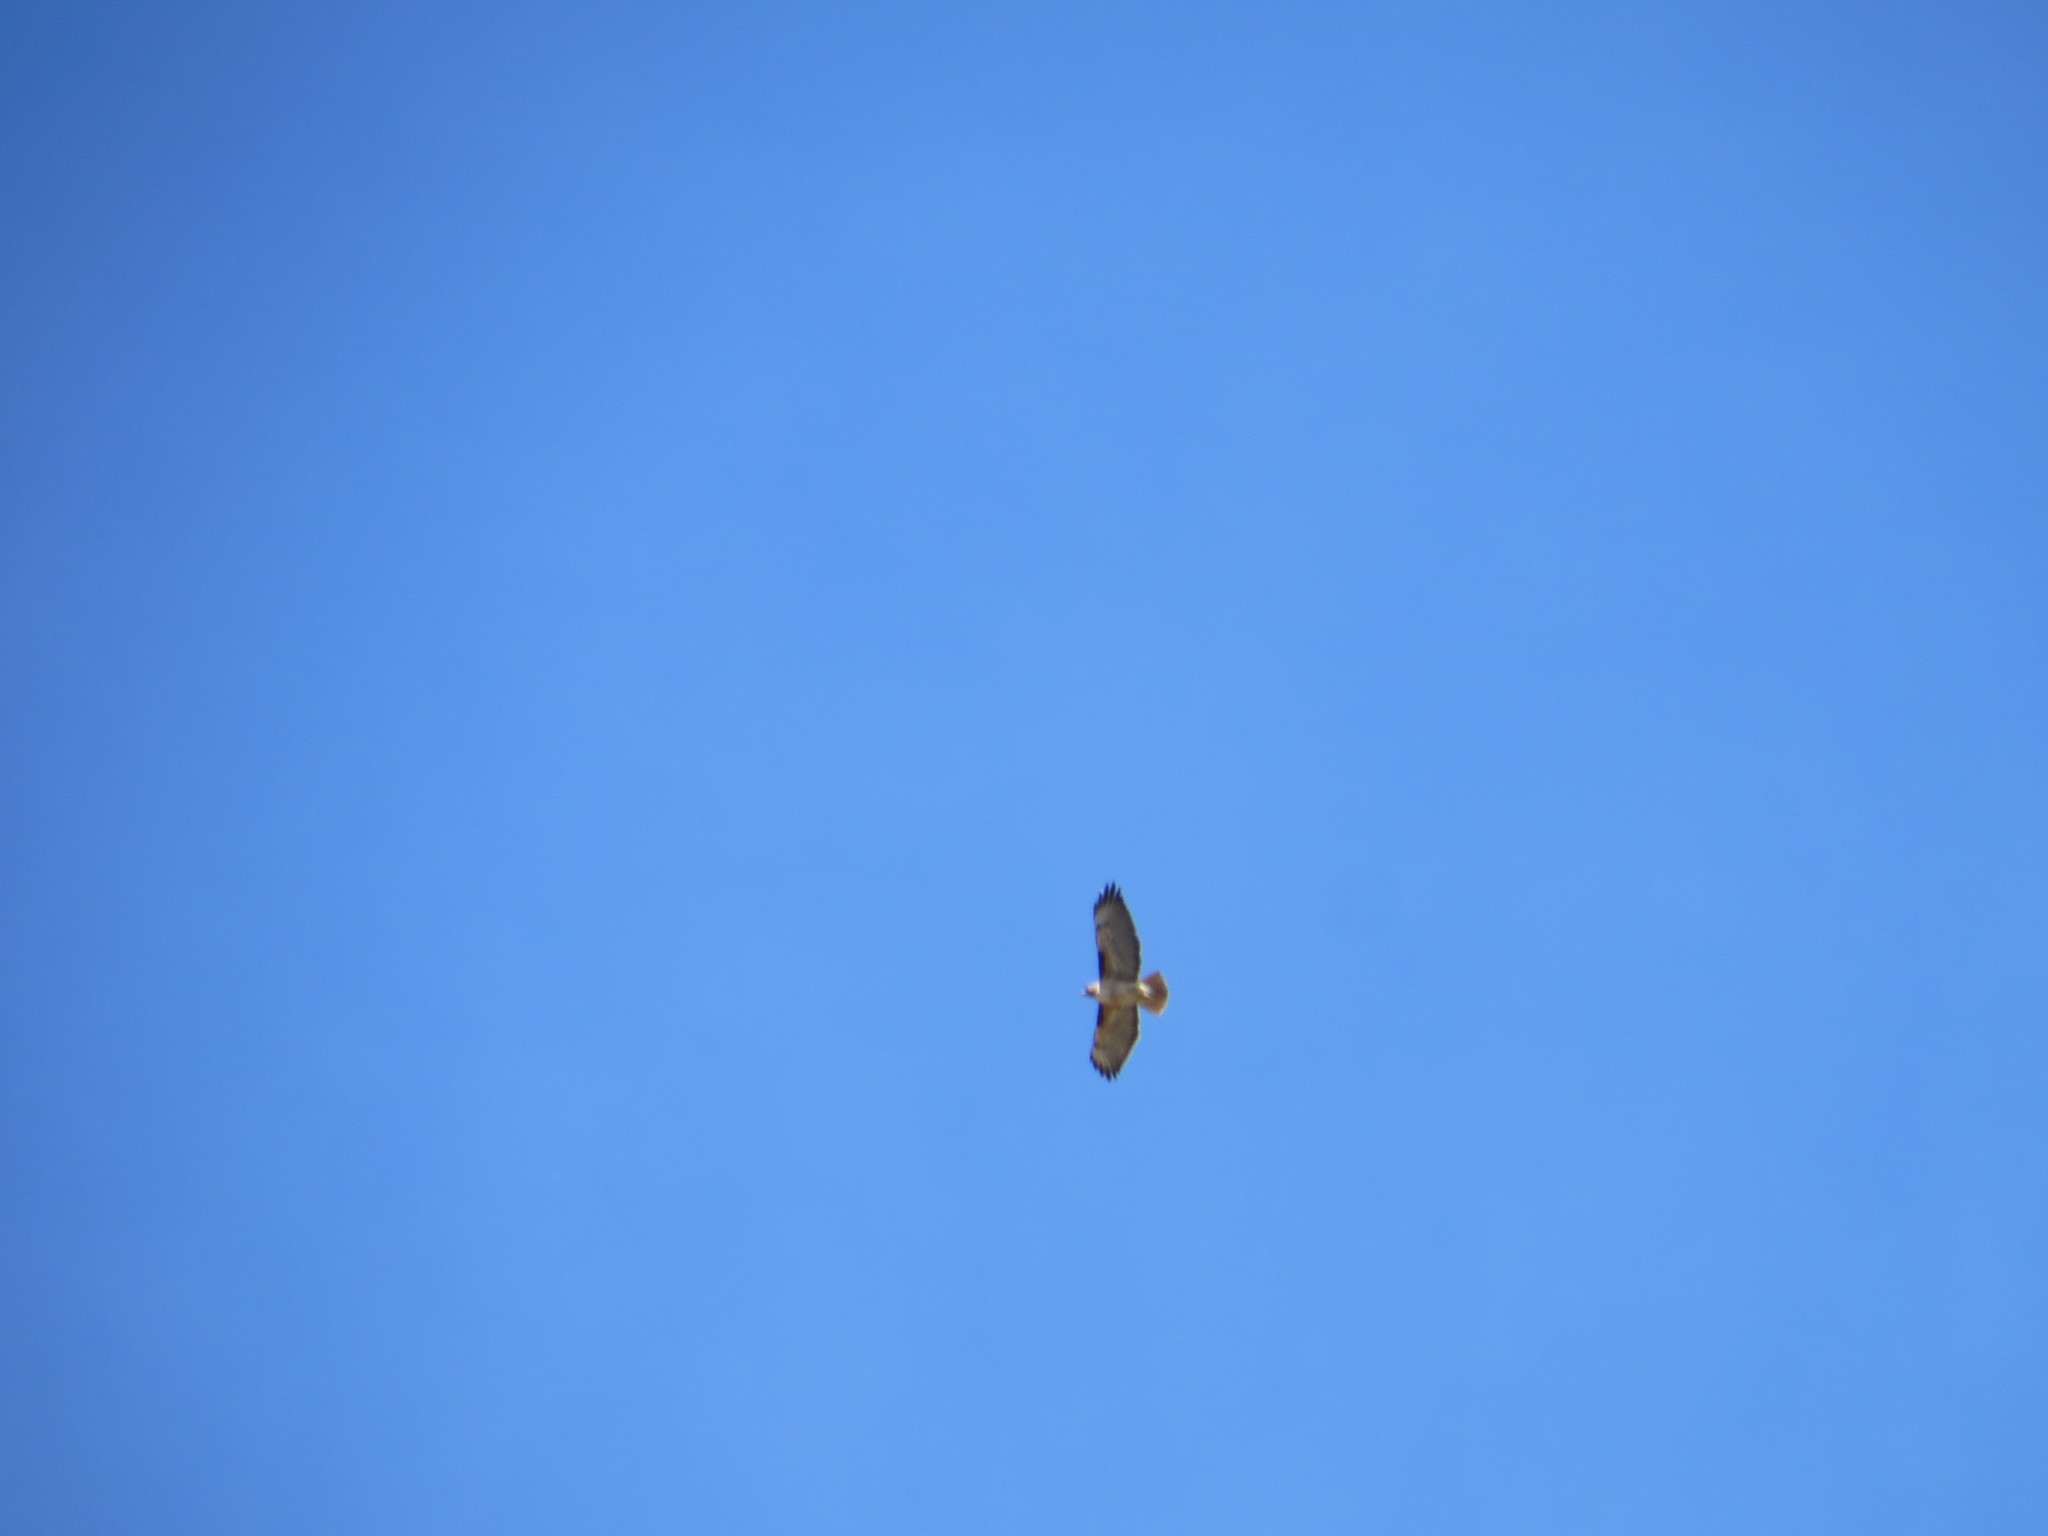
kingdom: Animalia
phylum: Chordata
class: Aves
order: Accipitriformes
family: Accipitridae
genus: Buteo
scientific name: Buteo jamaicensis
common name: Red-tailed hawk
